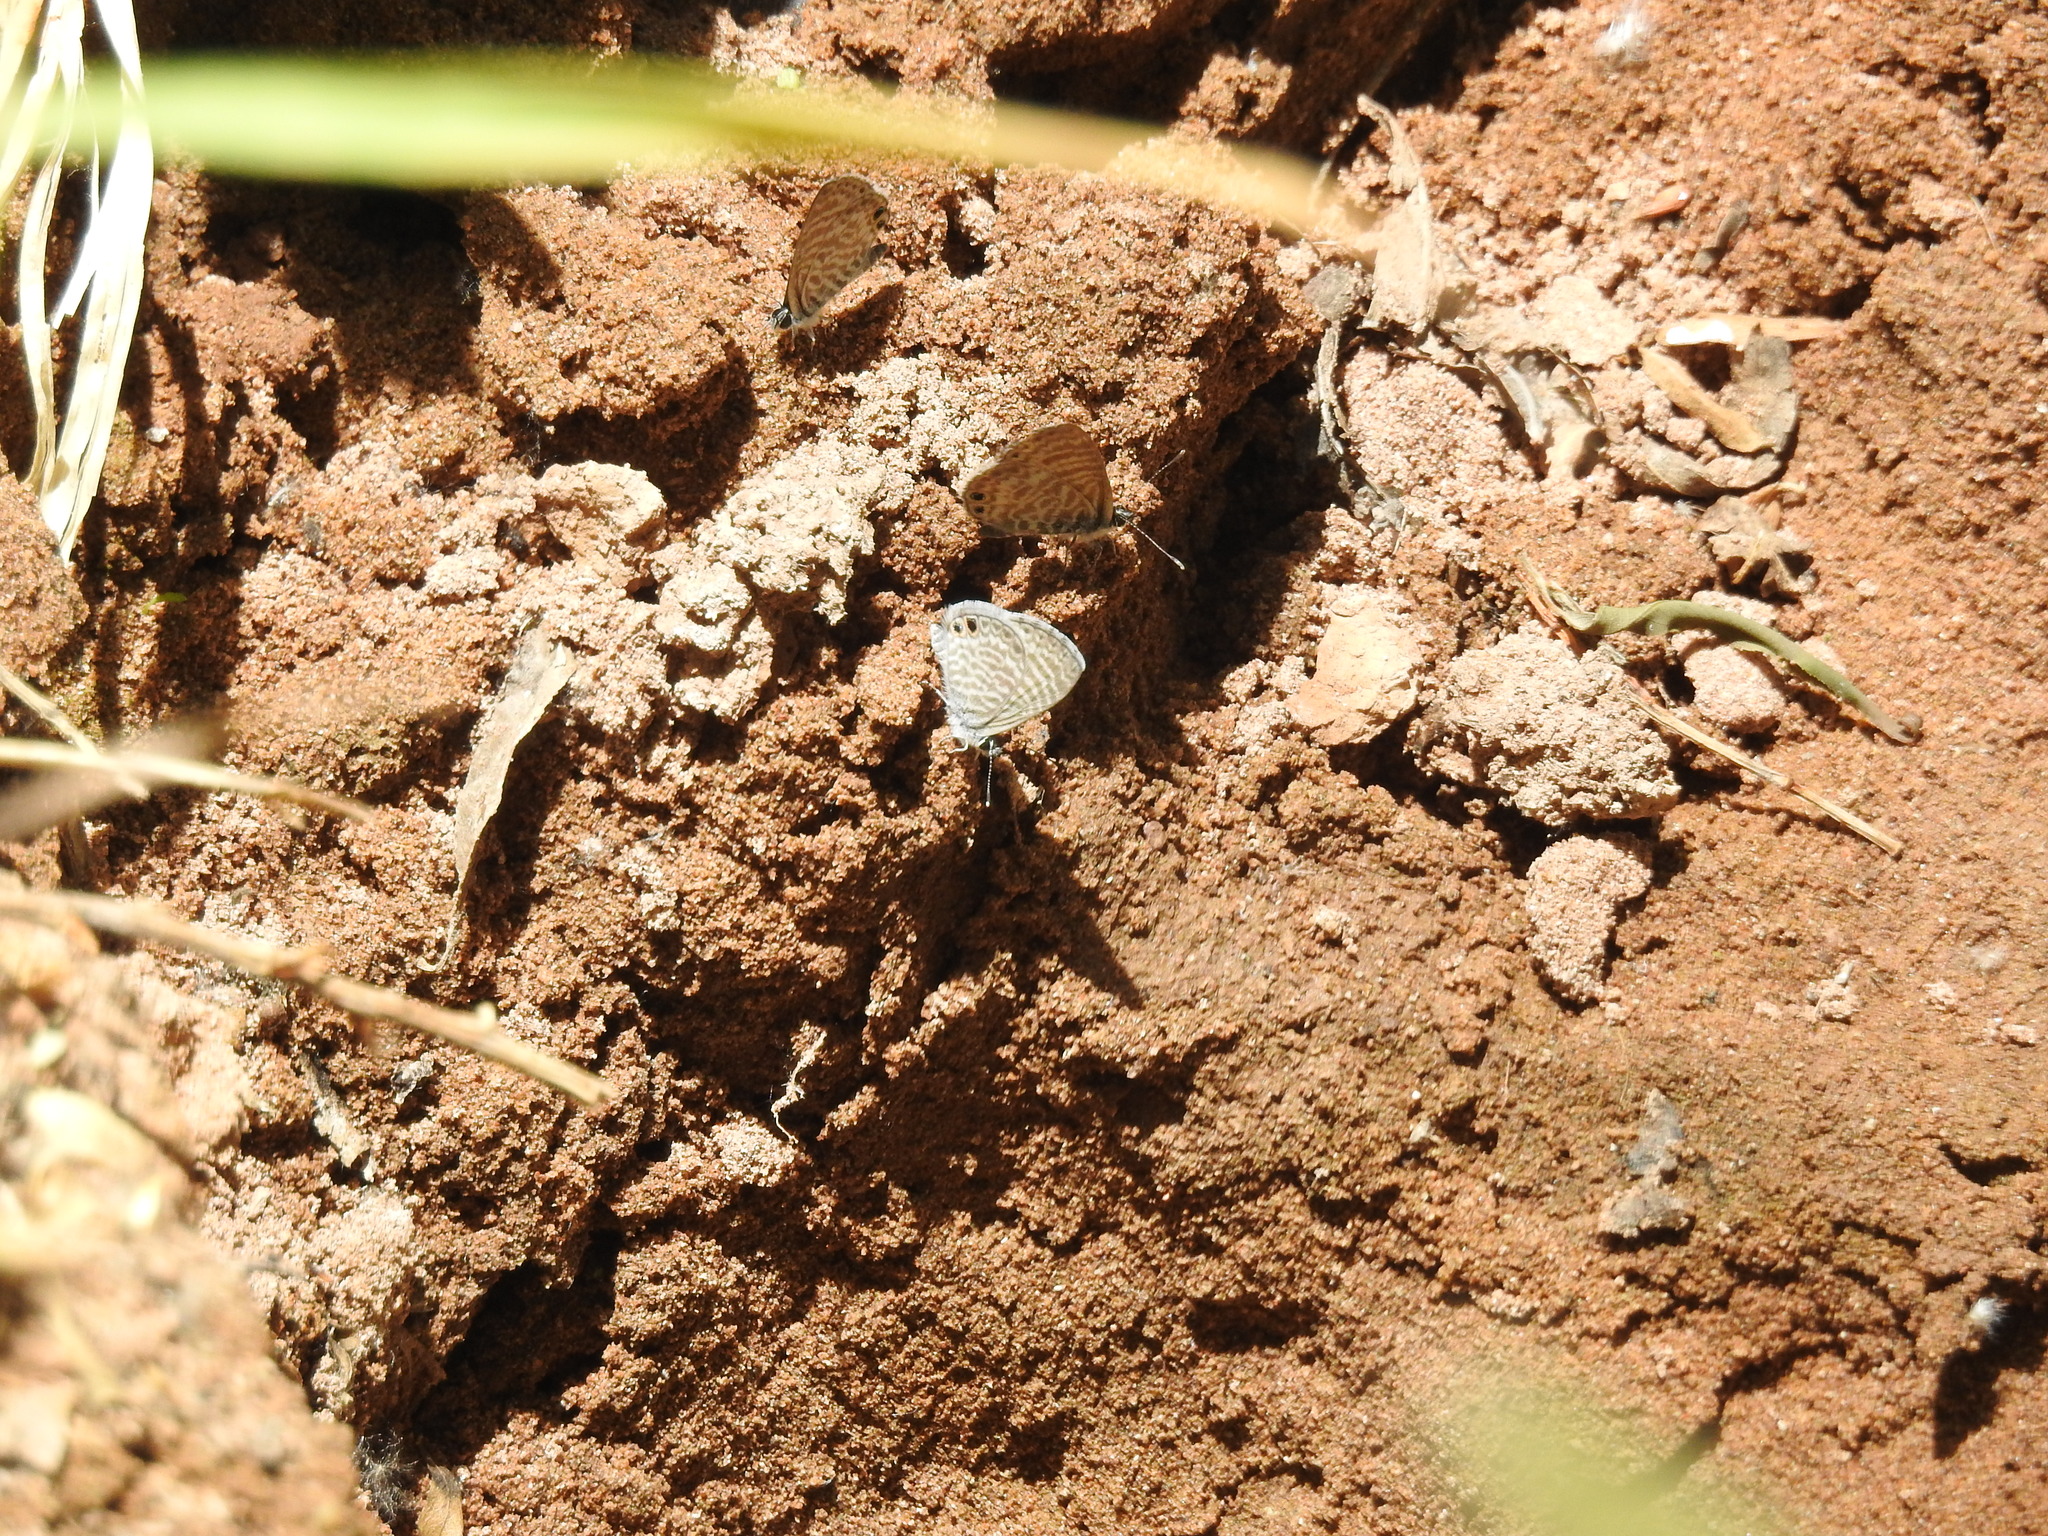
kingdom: Animalia
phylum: Arthropoda
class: Insecta
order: Lepidoptera
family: Lycaenidae
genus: Leptotes
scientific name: Leptotes marina
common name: Marine blue
